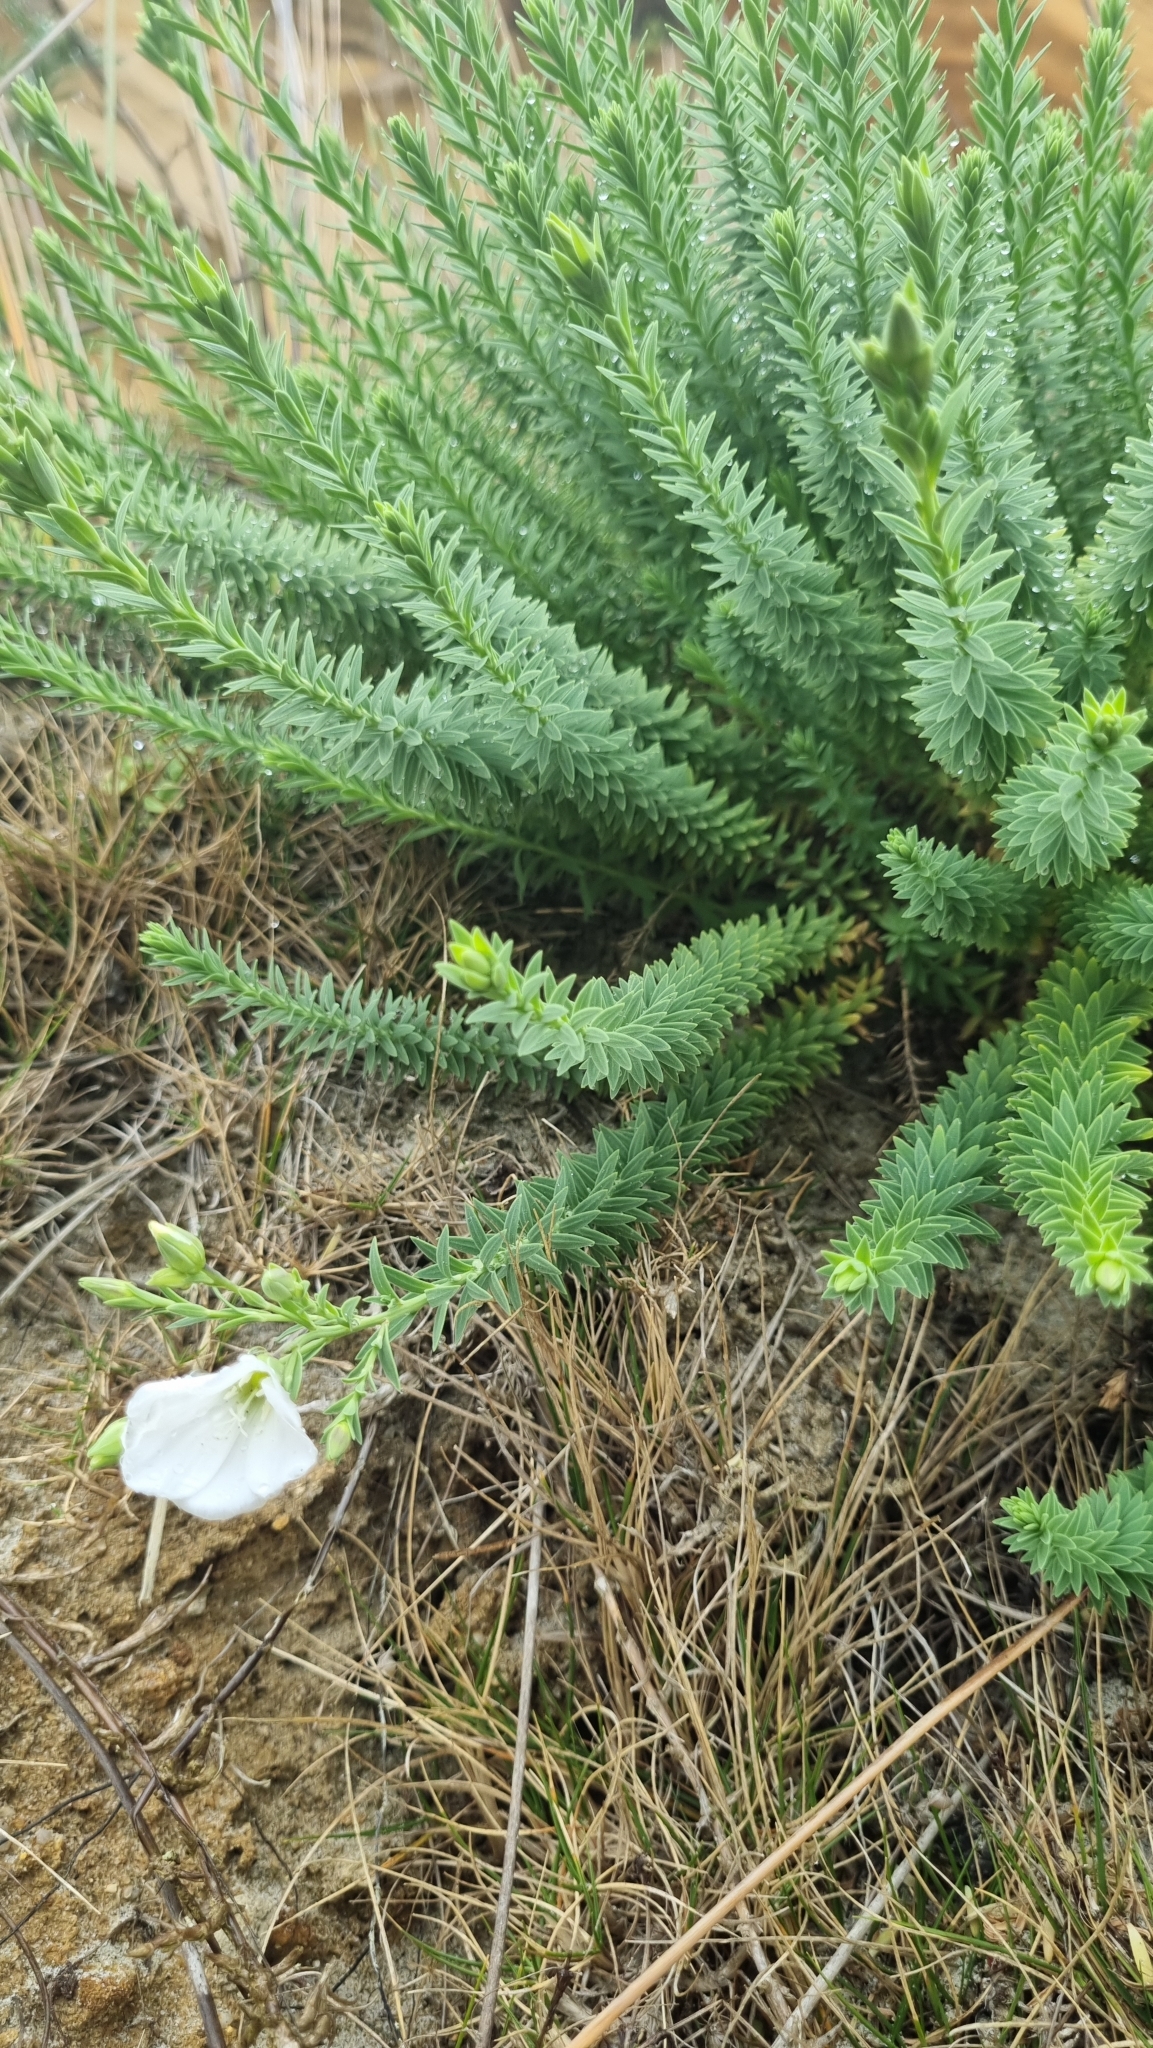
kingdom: Plantae
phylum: Tracheophyta
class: Magnoliopsida
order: Malpighiales
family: Linaceae
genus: Linum
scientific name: Linum monogynum
